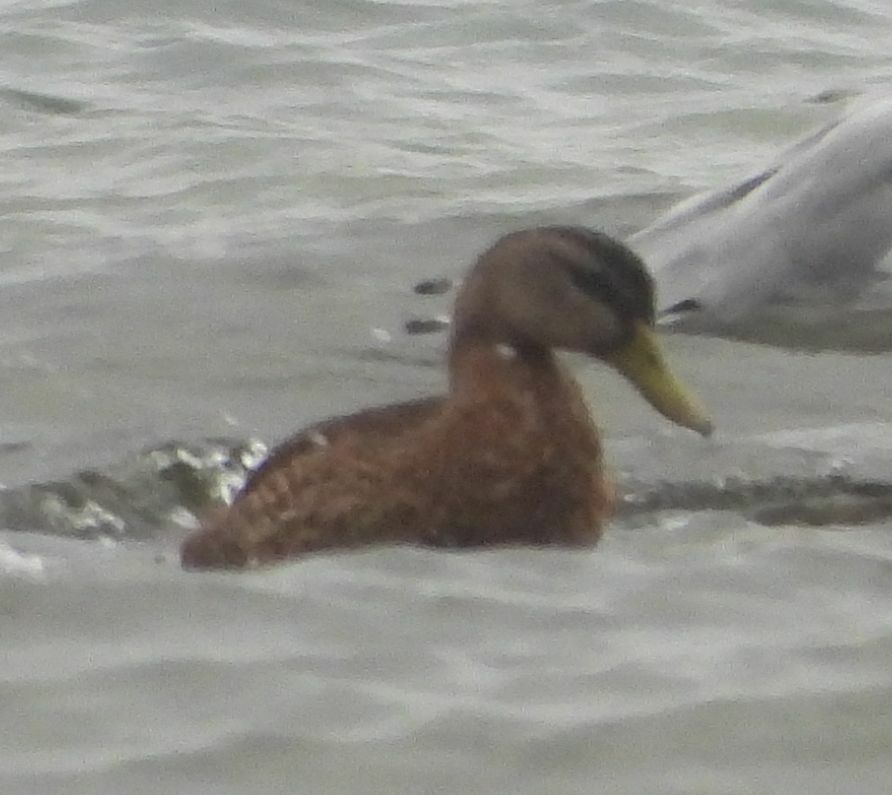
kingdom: Animalia
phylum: Chordata
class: Aves
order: Anseriformes
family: Anatidae
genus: Anas
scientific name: Anas platyrhynchos
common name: Mallard
